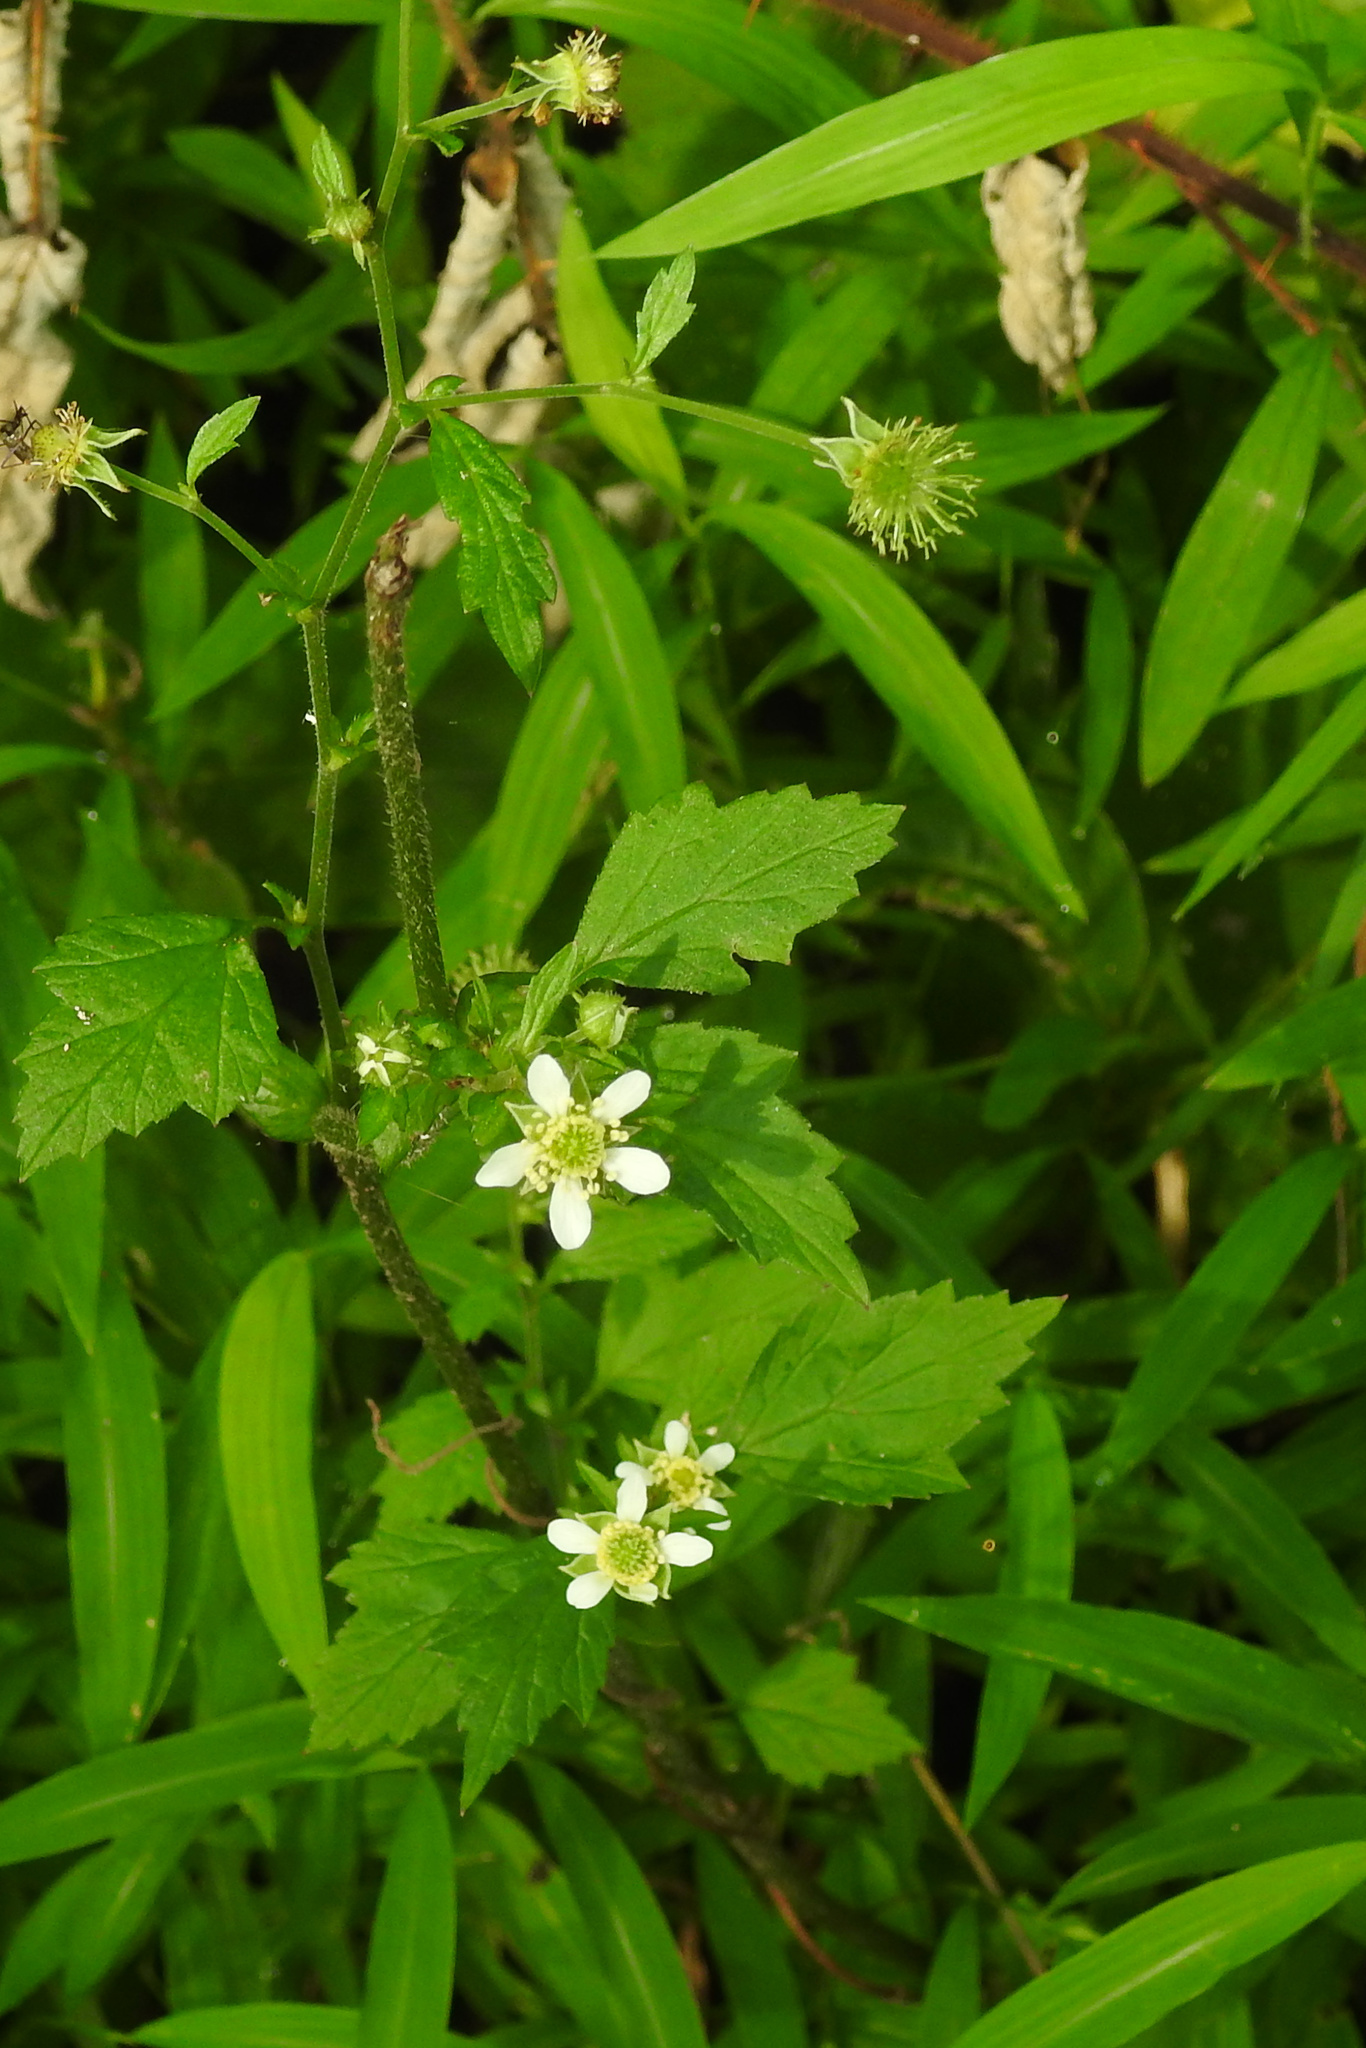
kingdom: Plantae
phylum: Tracheophyta
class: Magnoliopsida
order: Rosales
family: Rosaceae
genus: Geum
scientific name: Geum canadense
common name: White avens
